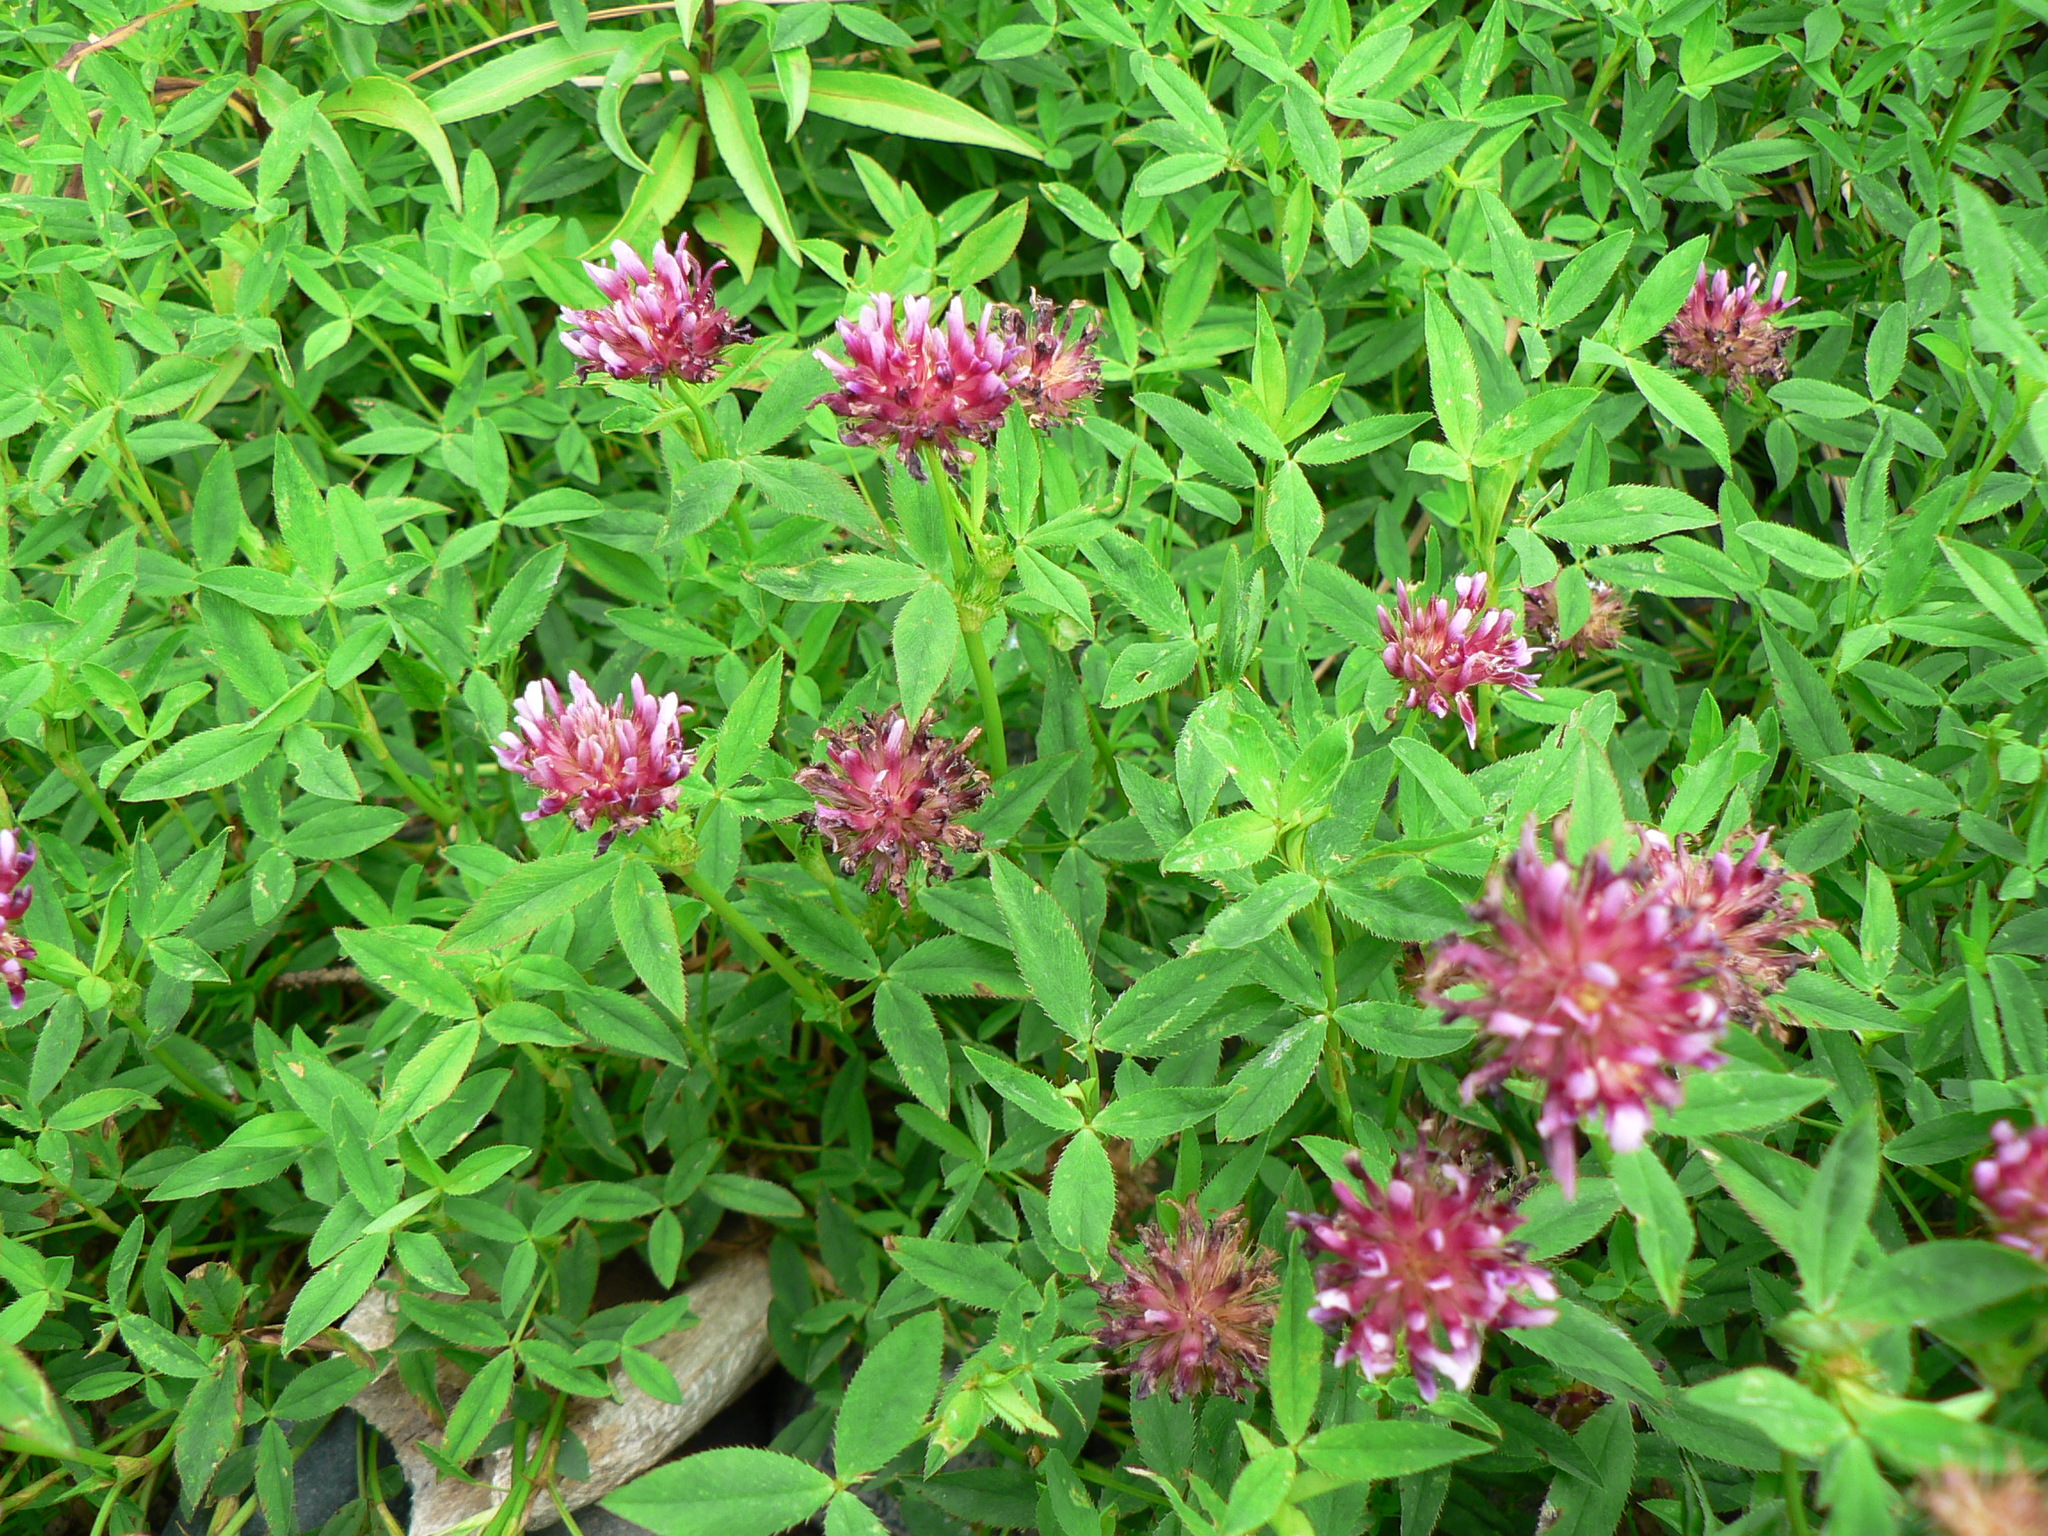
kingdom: Plantae
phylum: Tracheophyta
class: Magnoliopsida
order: Fabales
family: Fabaceae
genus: Trifolium
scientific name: Trifolium wormskioldii
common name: Springbank clover
